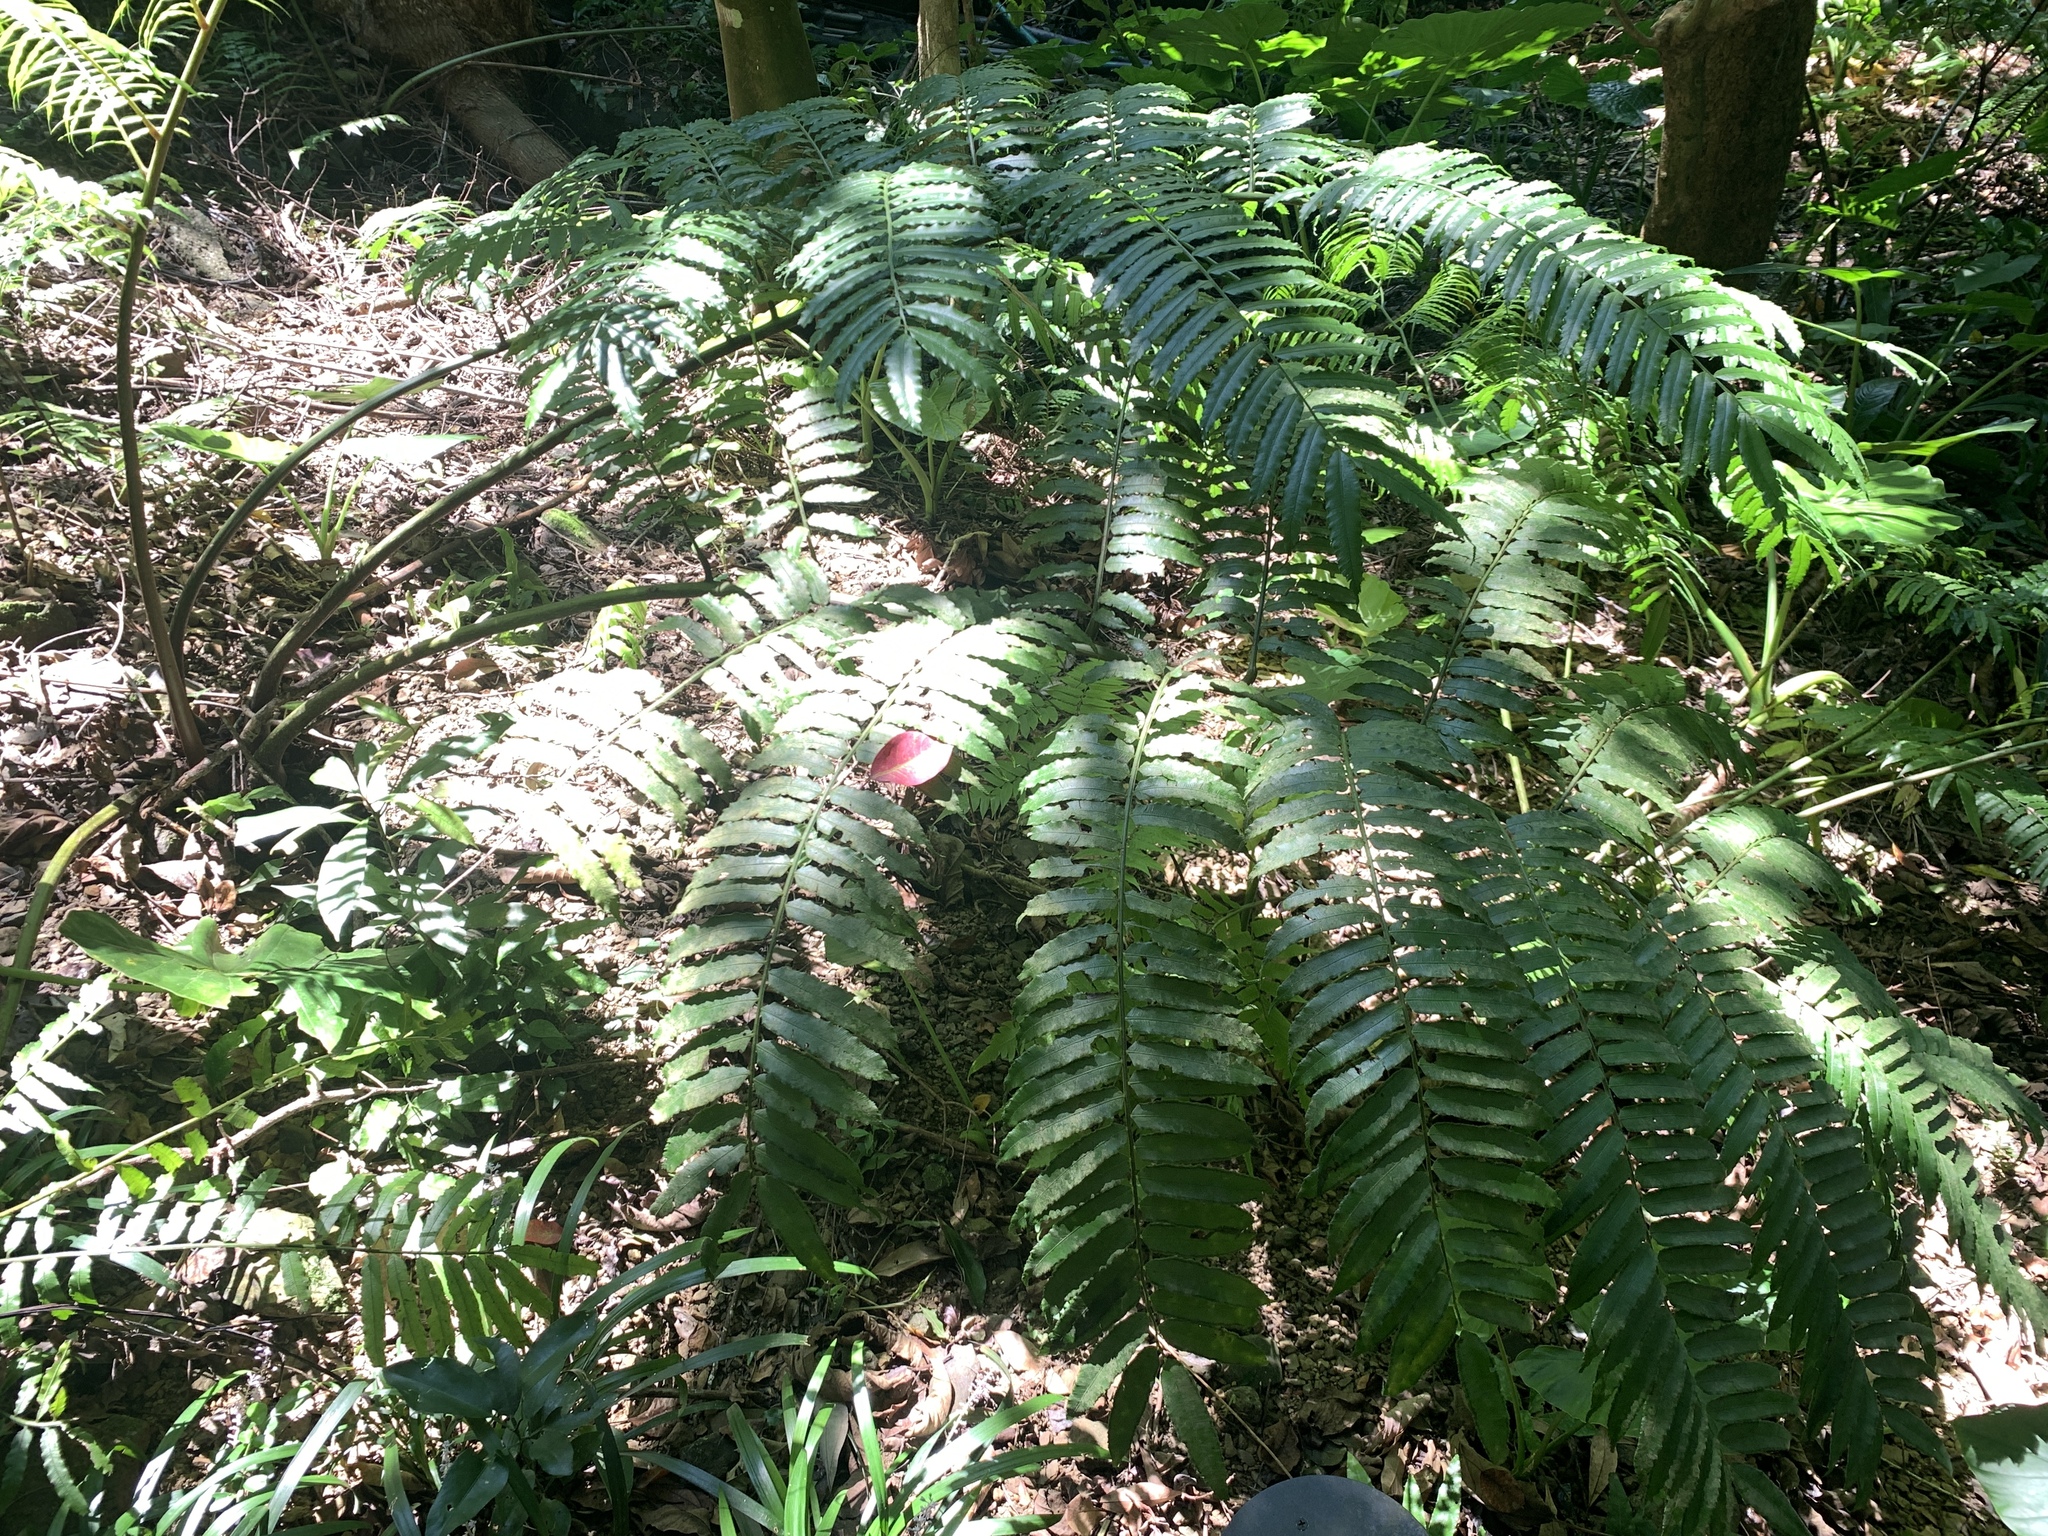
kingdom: Plantae
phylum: Tracheophyta
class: Polypodiopsida
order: Marattiales
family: Marattiaceae
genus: Angiopteris
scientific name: Angiopteris lygodiifolia
